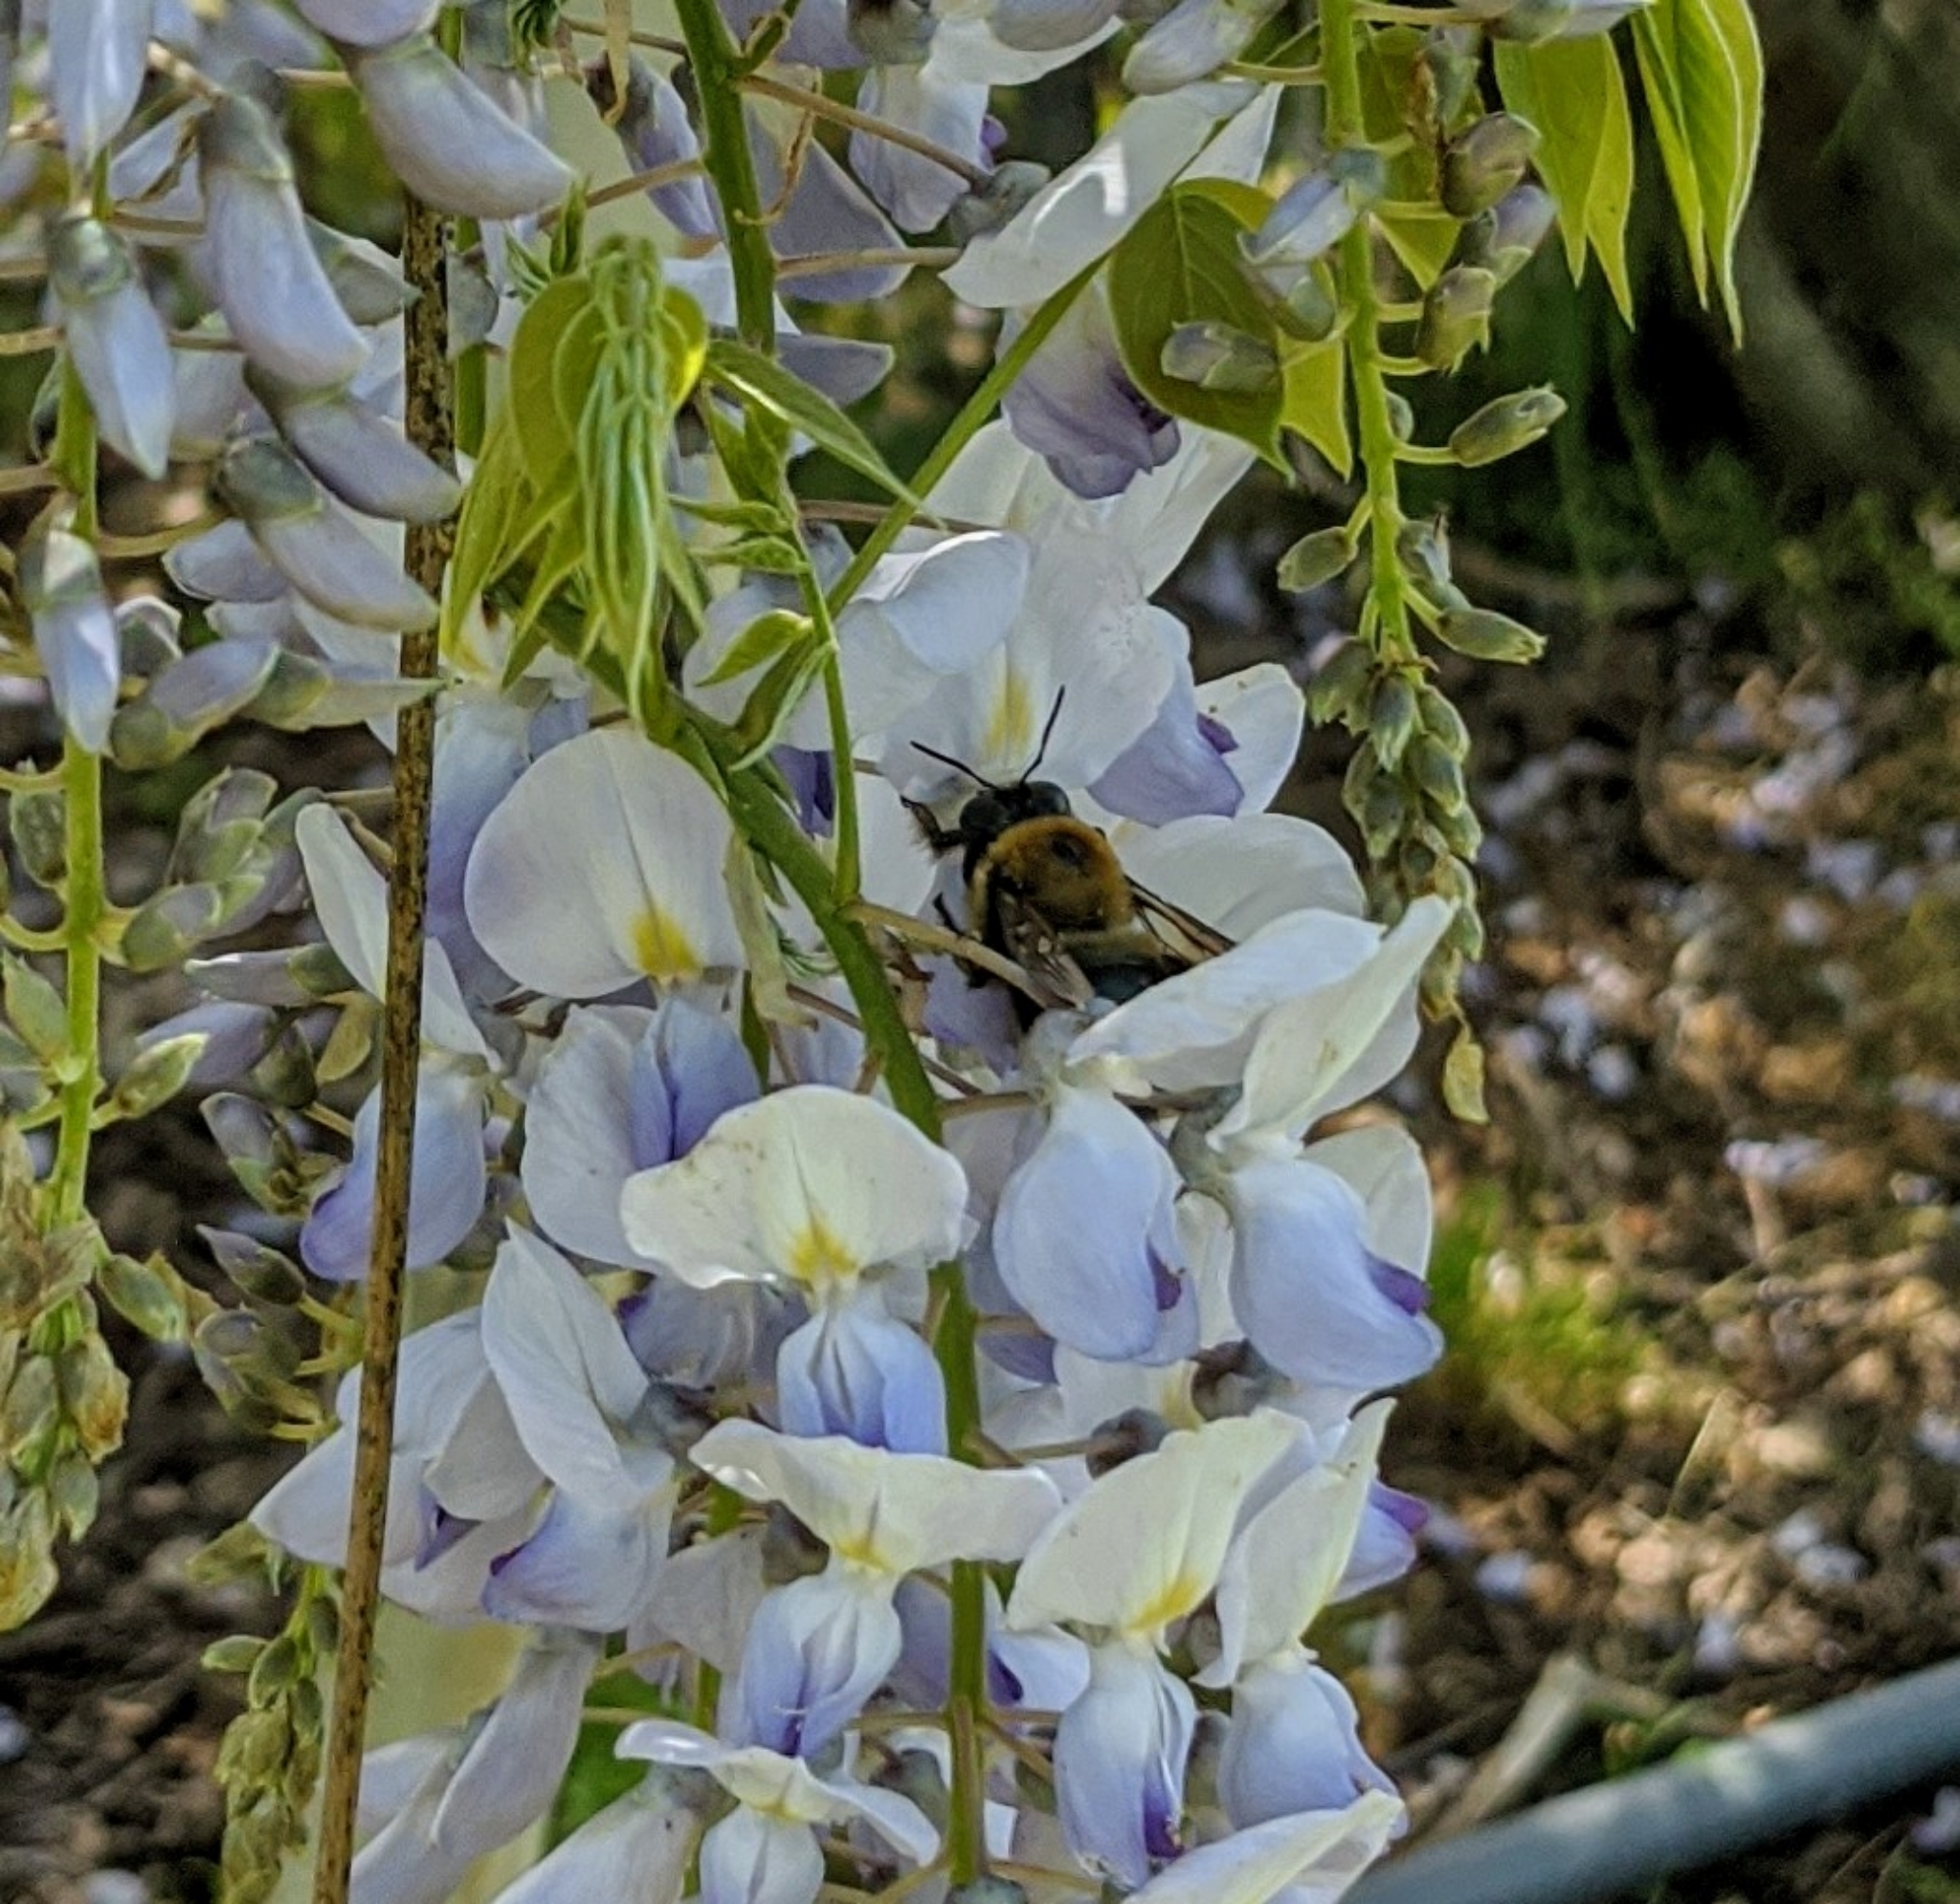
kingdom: Animalia
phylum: Arthropoda
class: Insecta
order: Hymenoptera
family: Apidae
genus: Xylocopa
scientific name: Xylocopa virginica
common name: Carpenter bee
